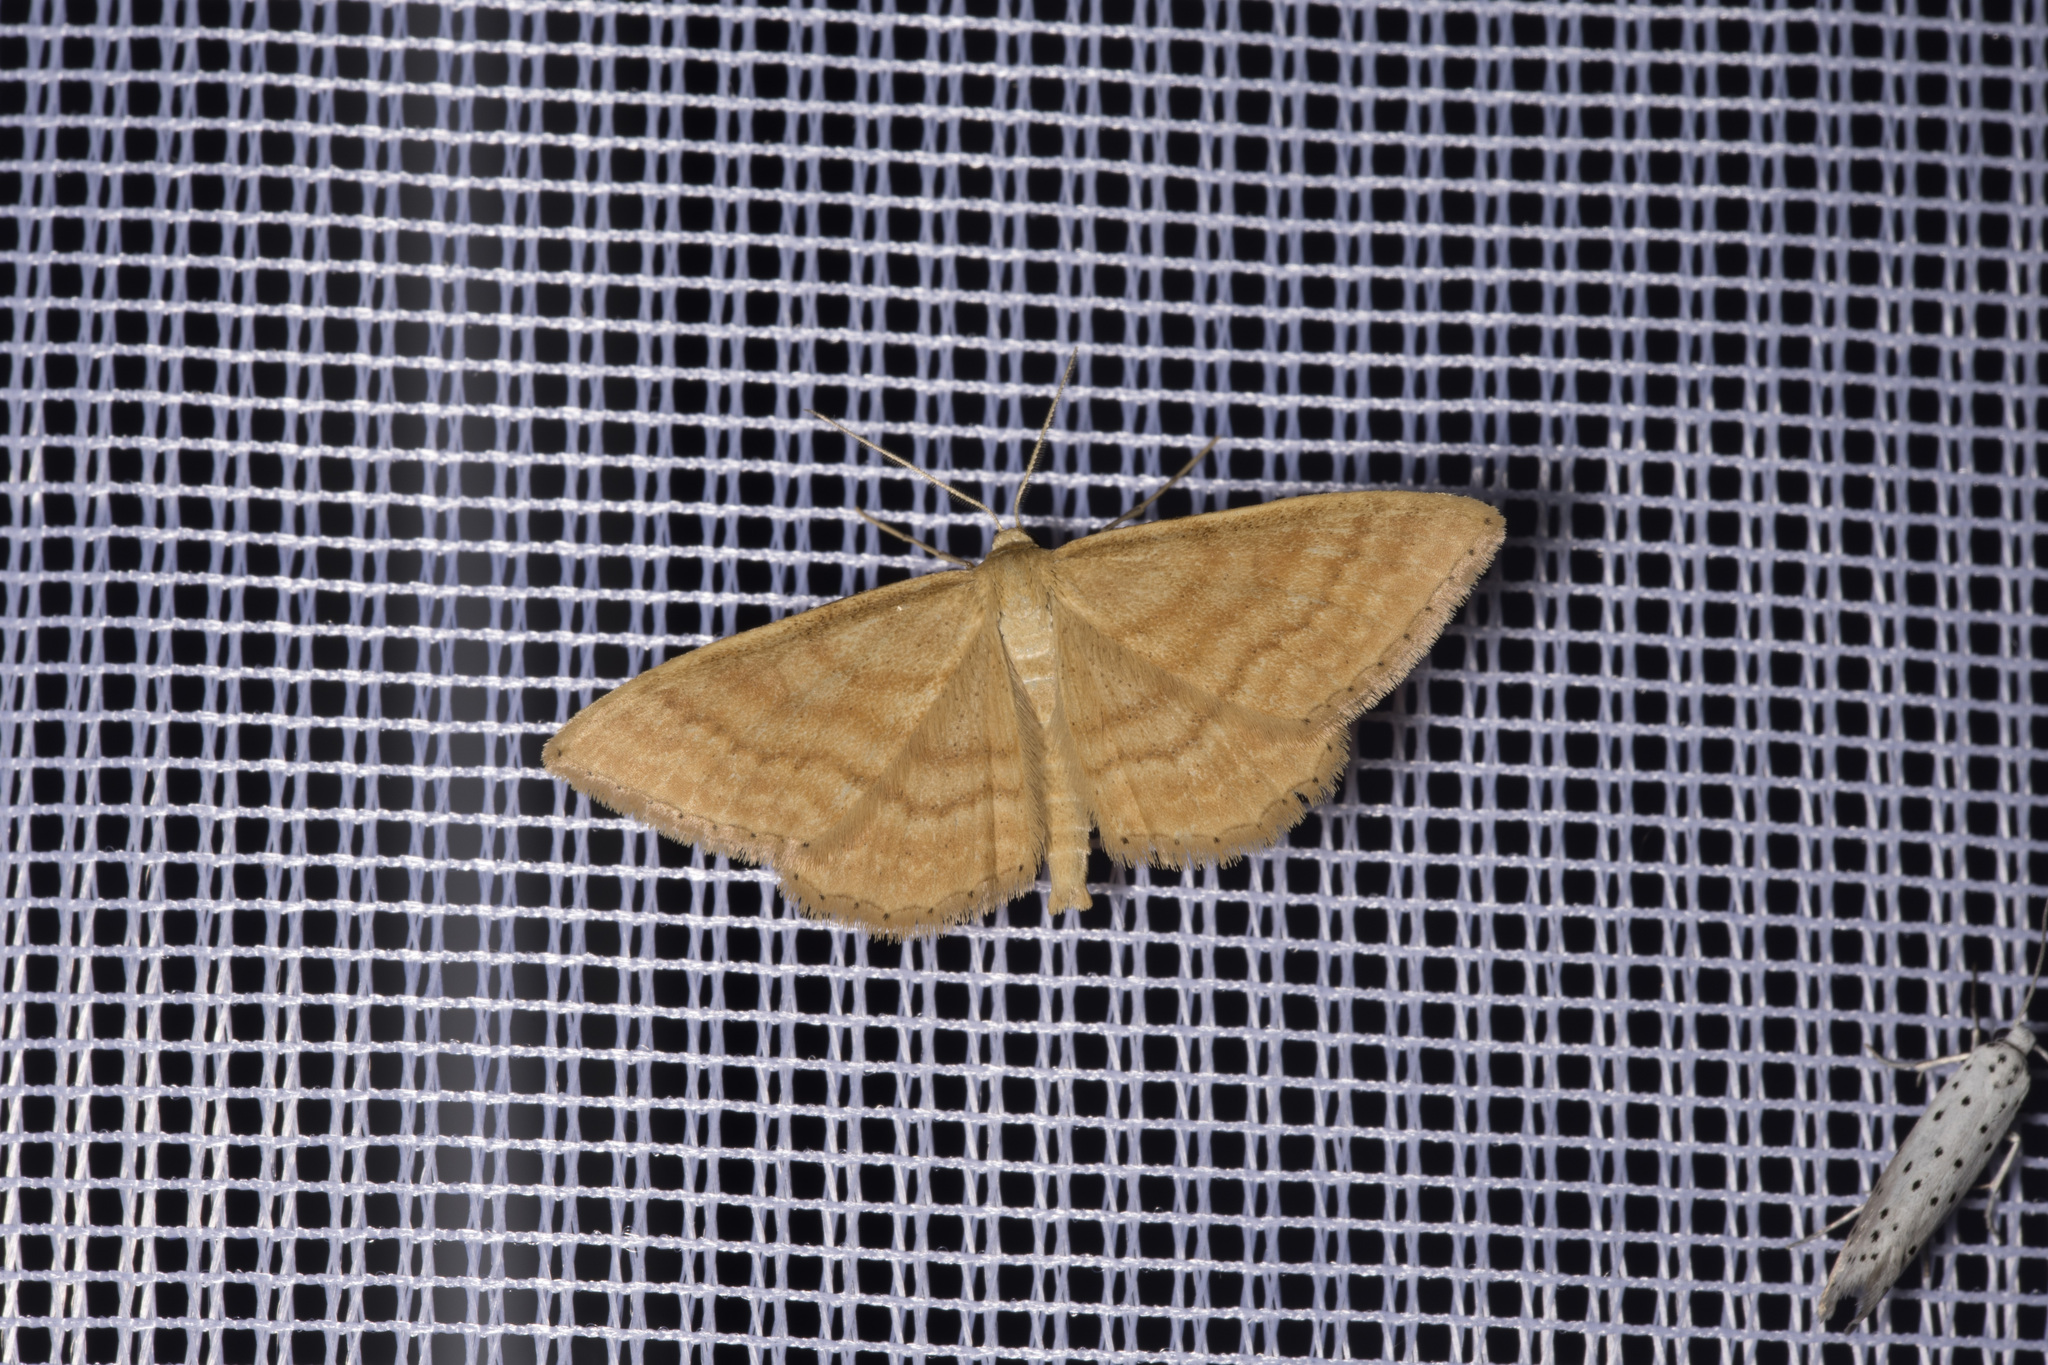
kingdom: Animalia
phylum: Arthropoda
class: Insecta
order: Lepidoptera
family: Geometridae
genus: Idaea
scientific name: Idaea ochrata
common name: Bright wave
